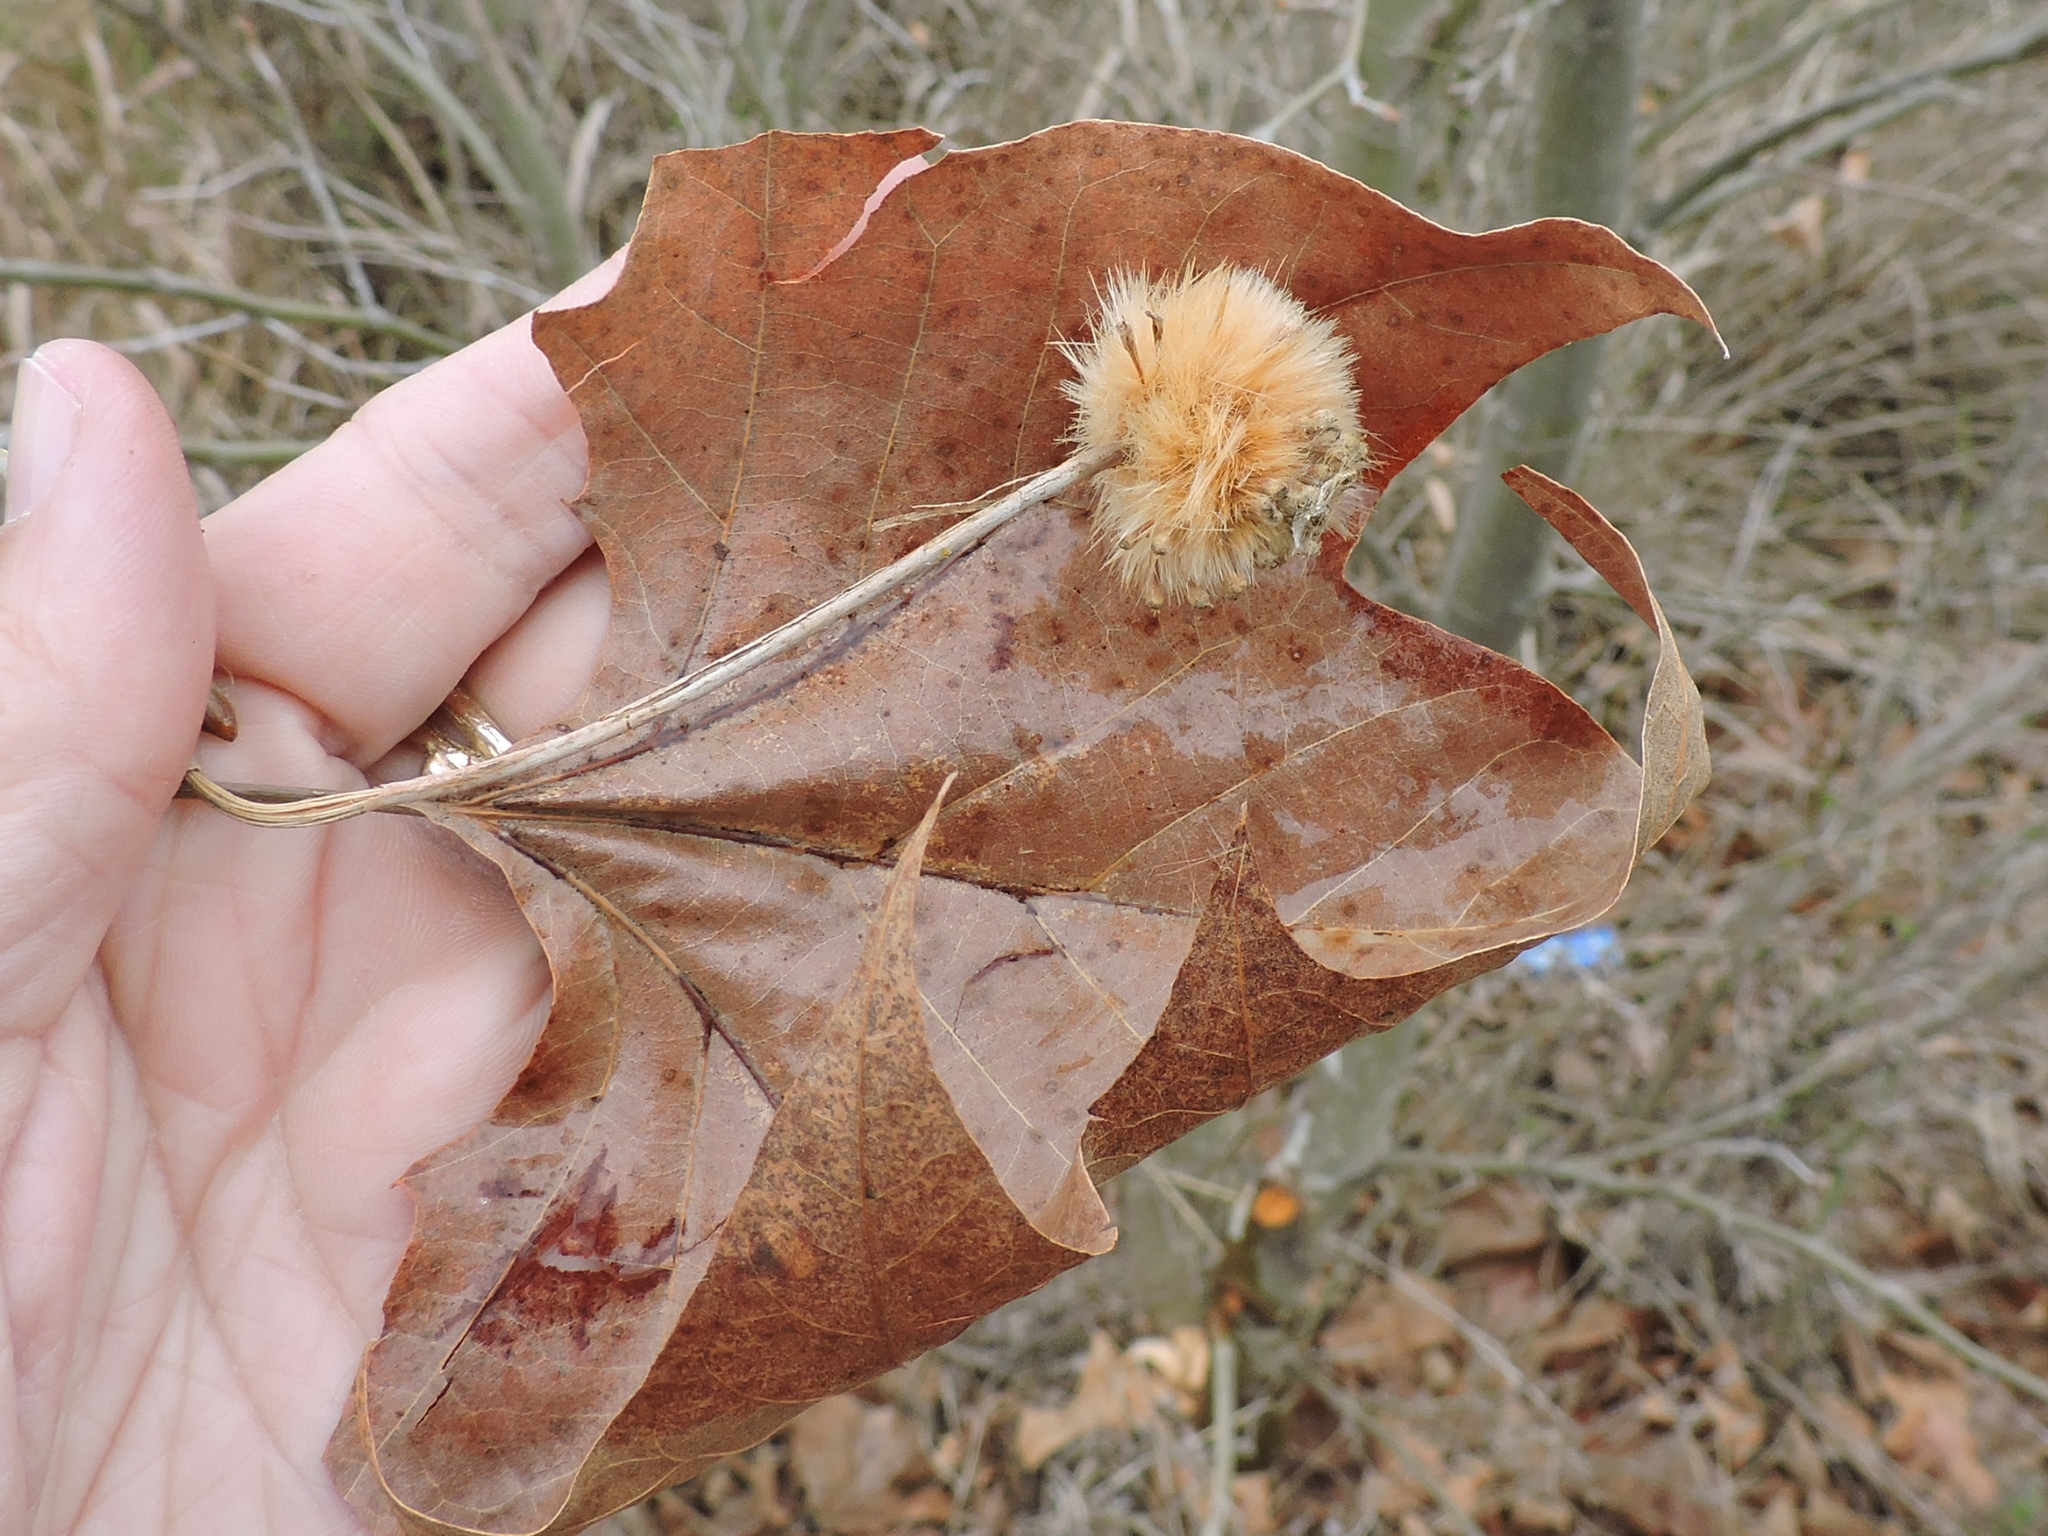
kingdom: Plantae
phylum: Tracheophyta
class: Magnoliopsida
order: Proteales
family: Platanaceae
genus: Platanus
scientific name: Platanus occidentalis
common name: American sycamore
